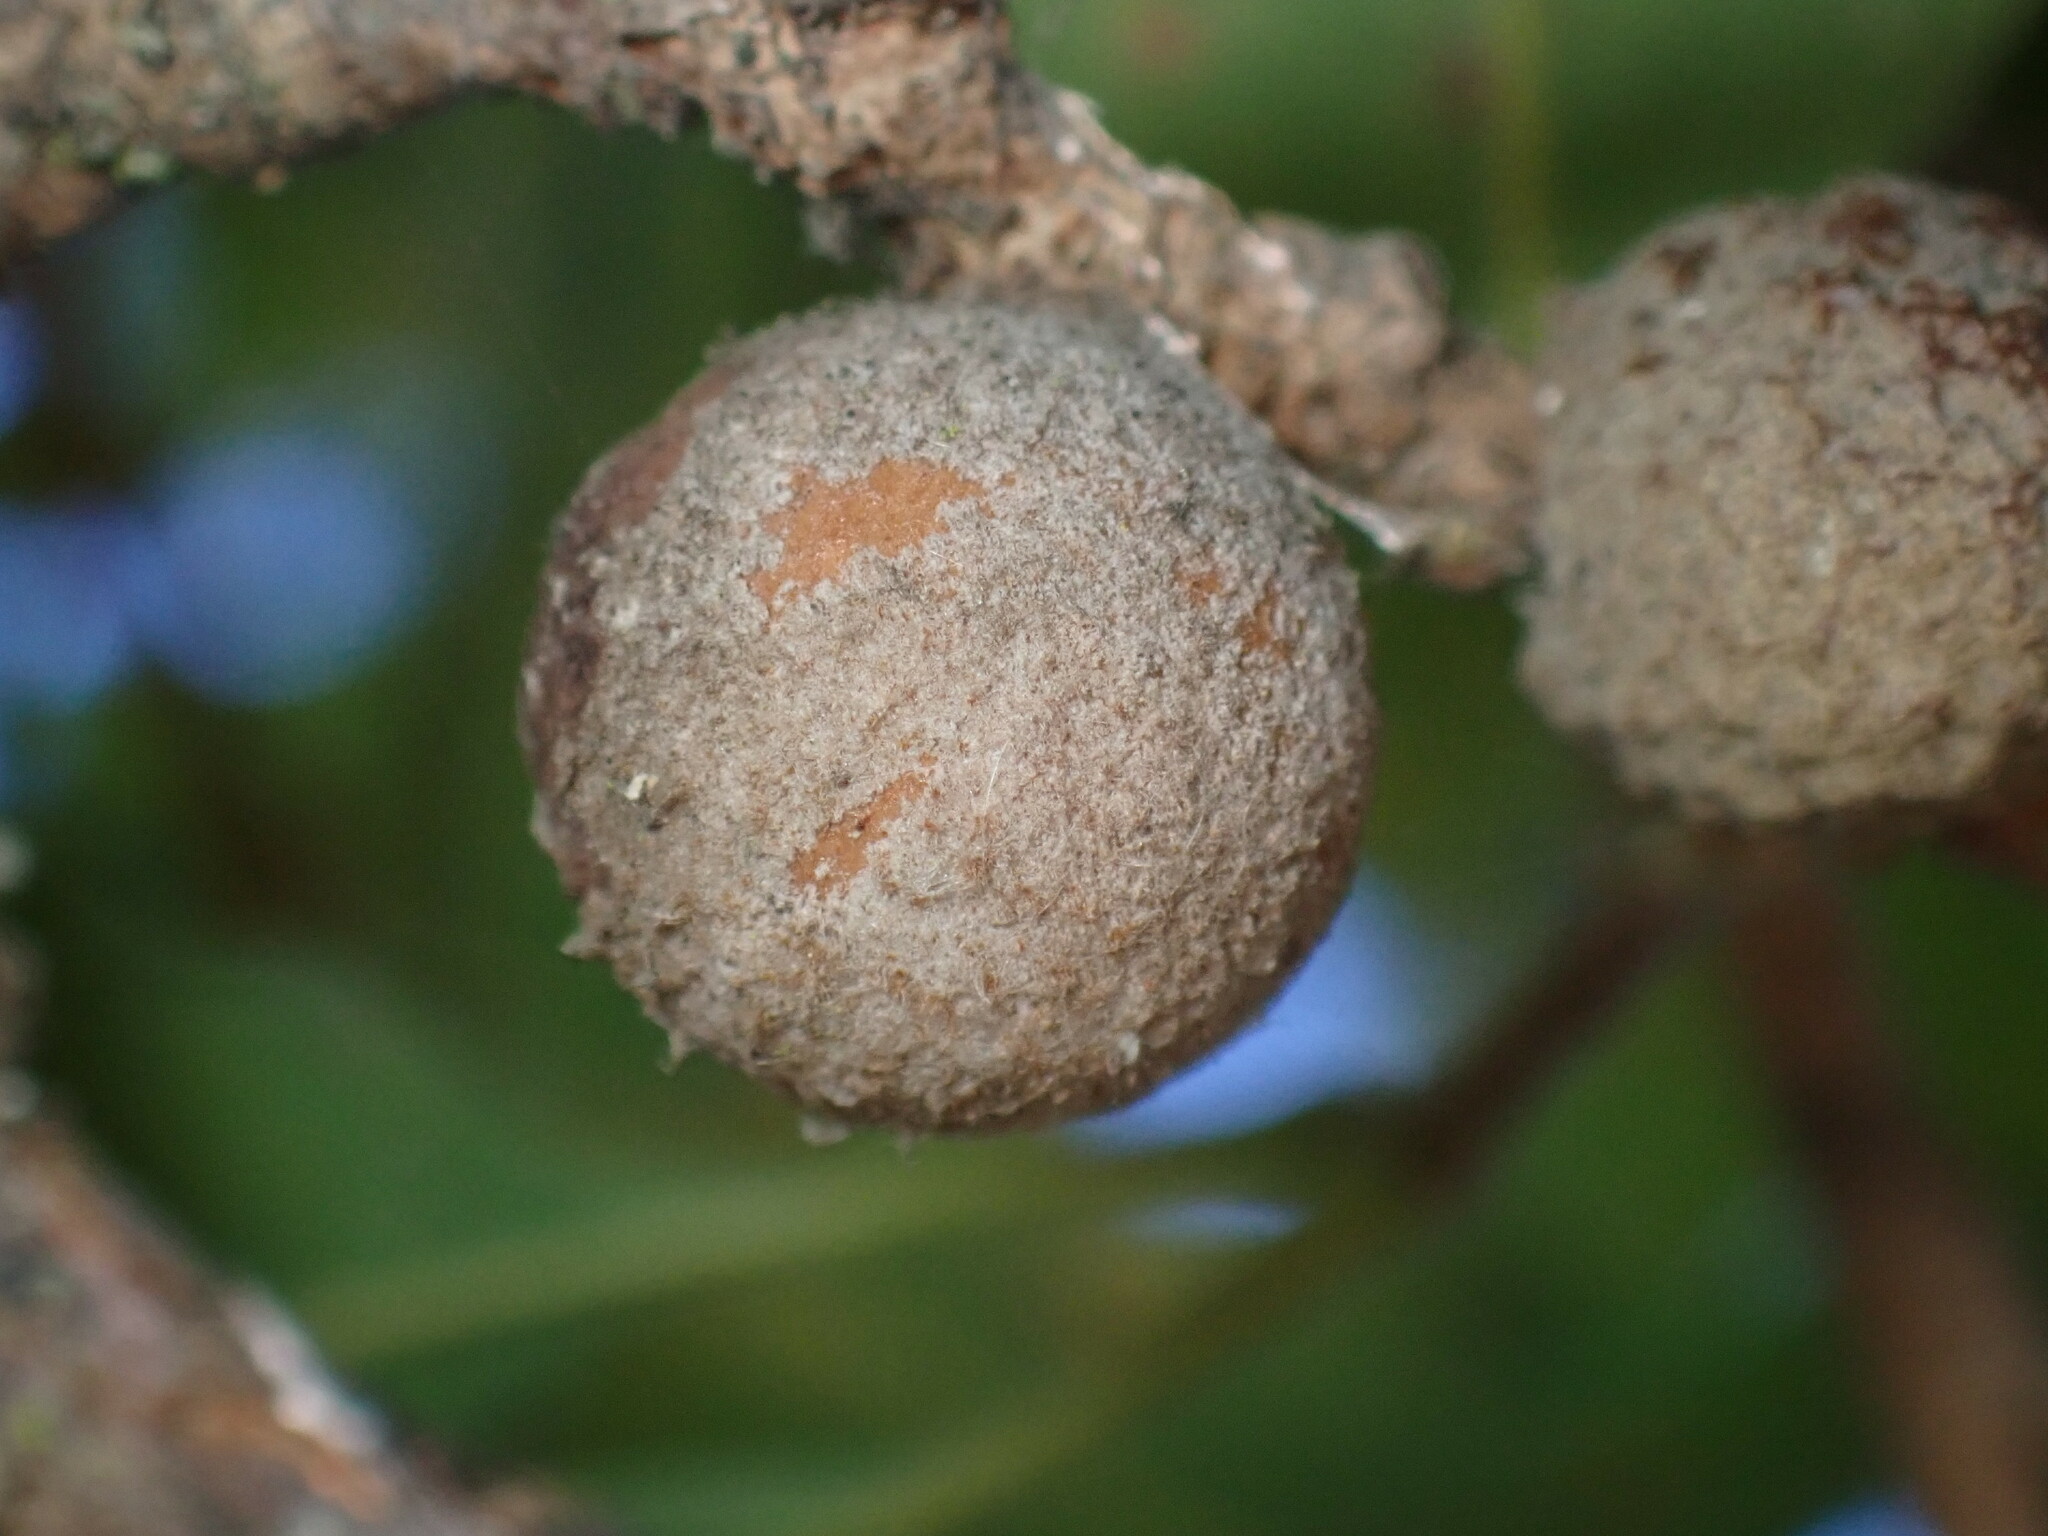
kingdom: Animalia
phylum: Arthropoda
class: Insecta
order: Hymenoptera
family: Cynipidae
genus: Burnettweldia
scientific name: Burnettweldia
